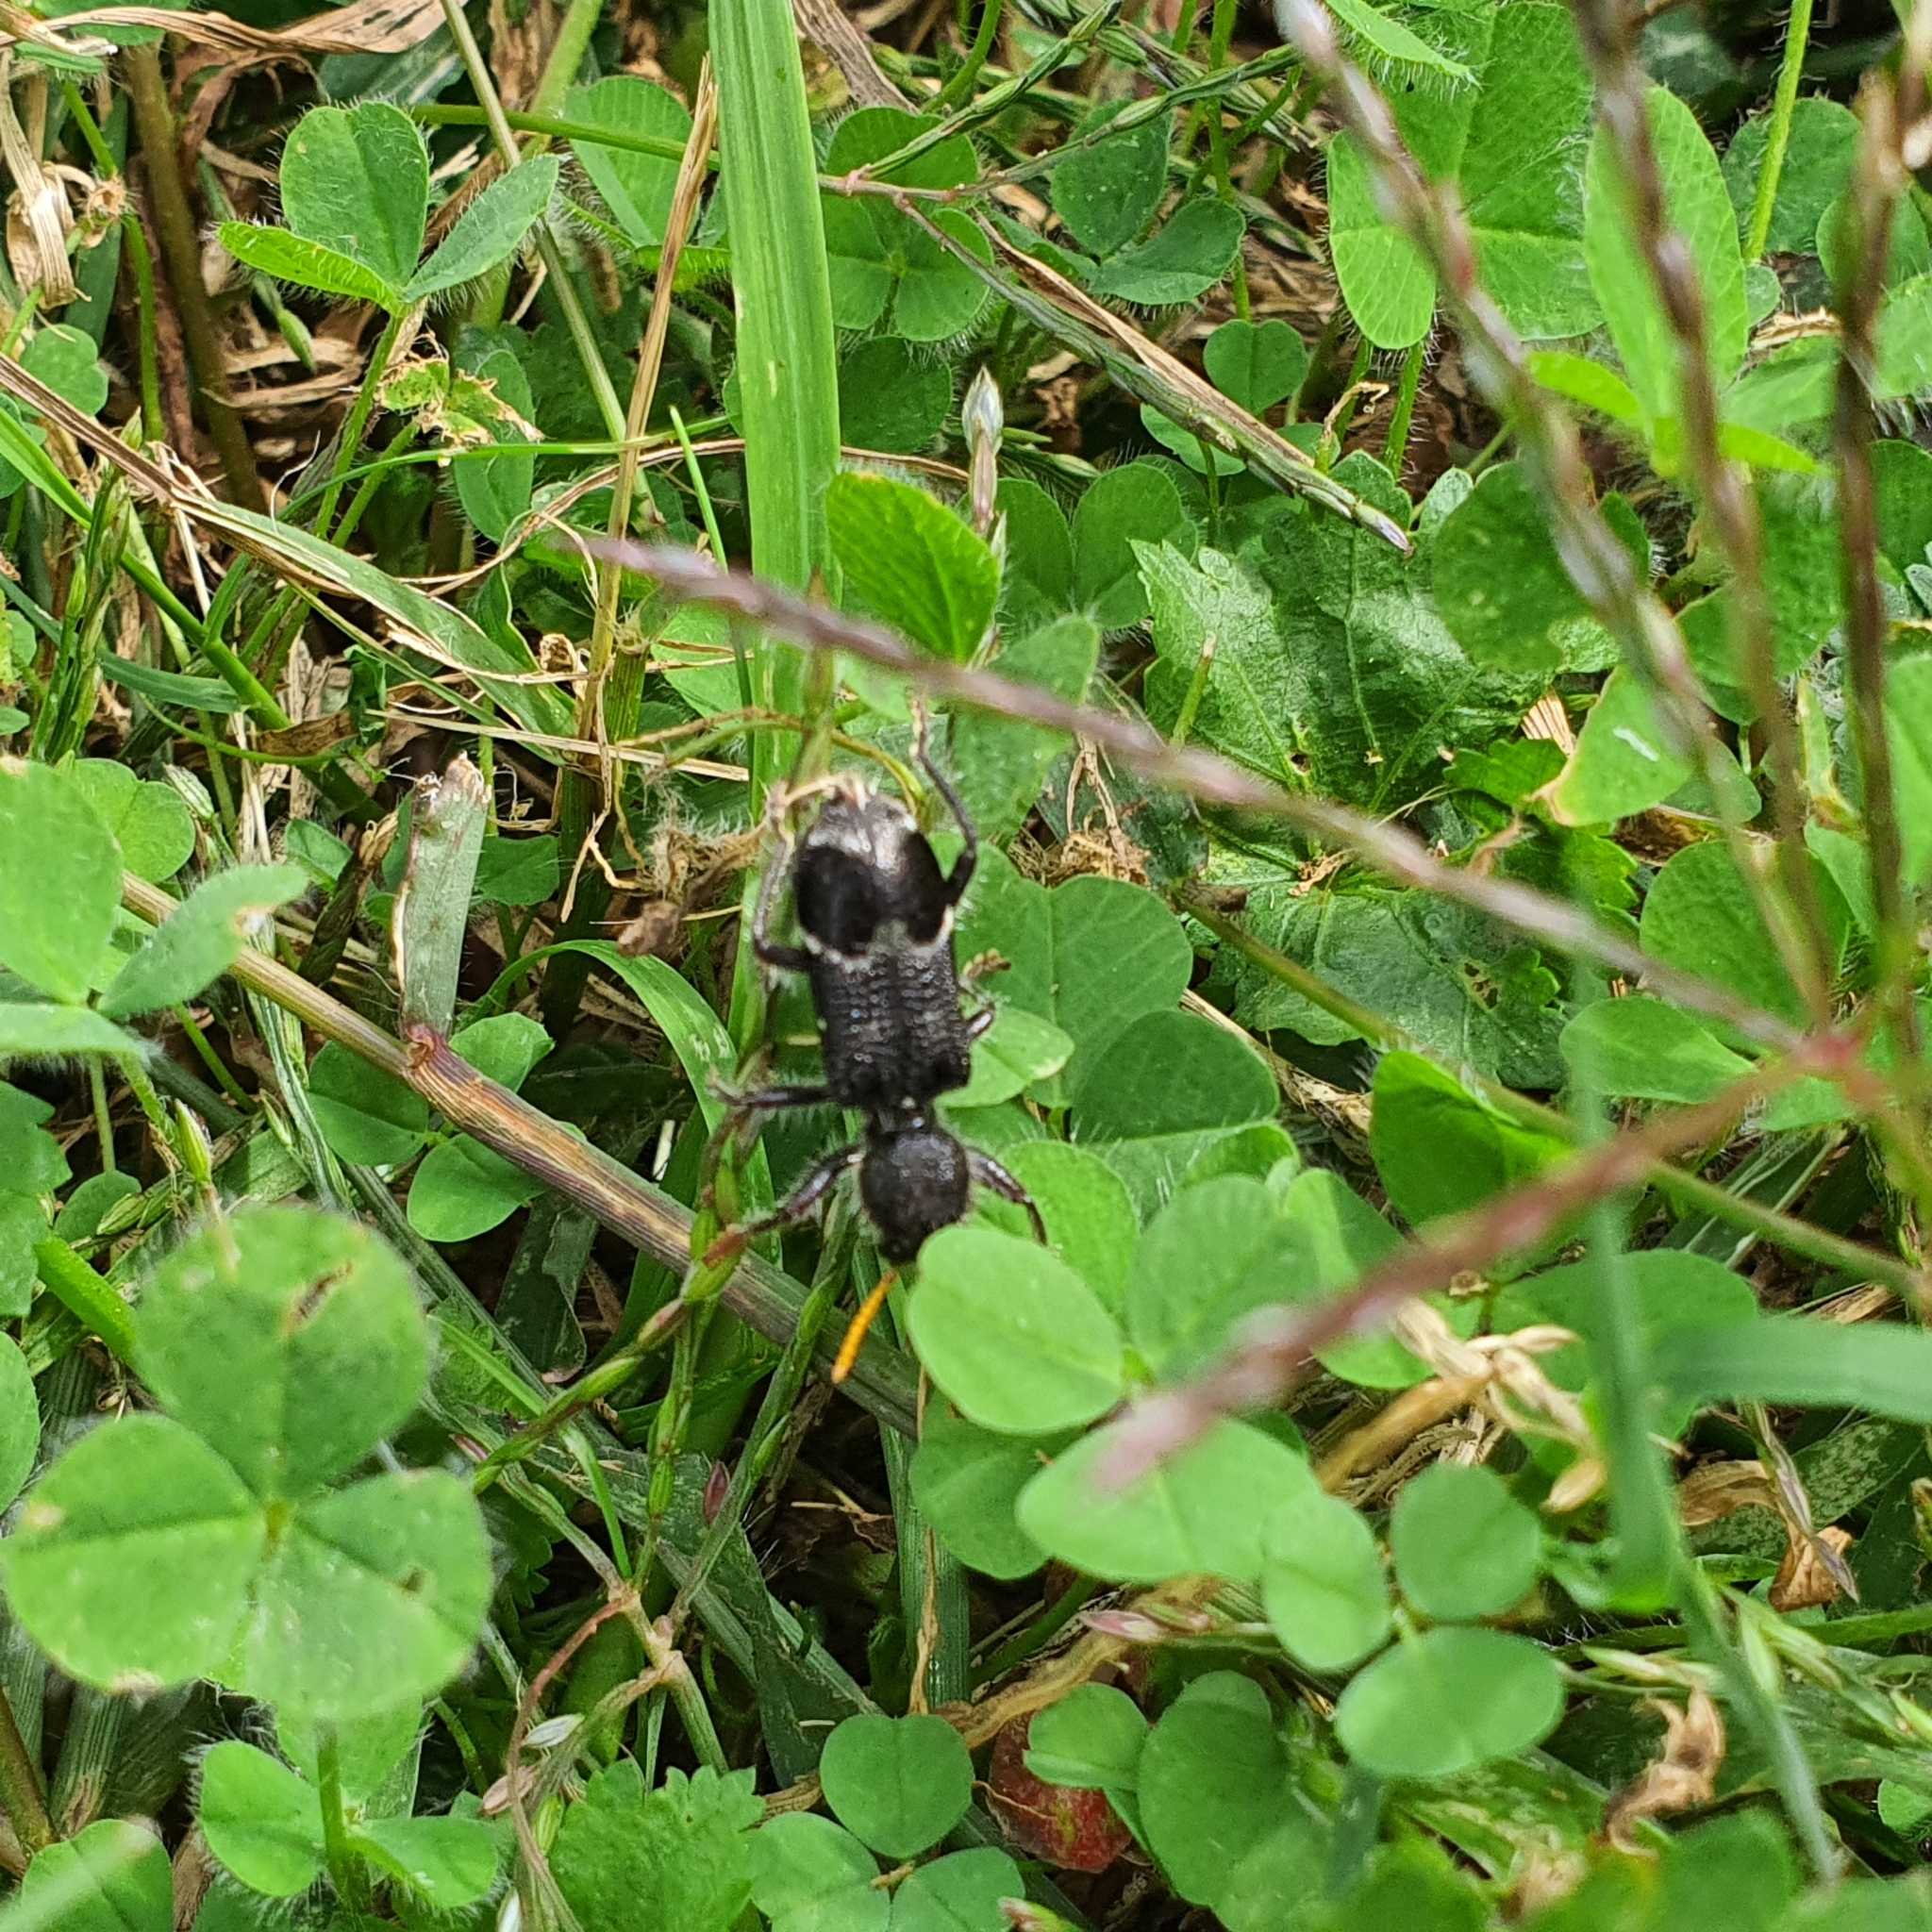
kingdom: Animalia
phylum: Arthropoda
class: Insecta
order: Coleoptera
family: Cleridae
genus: Trogodendron
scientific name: Trogodendron fasiculatum
